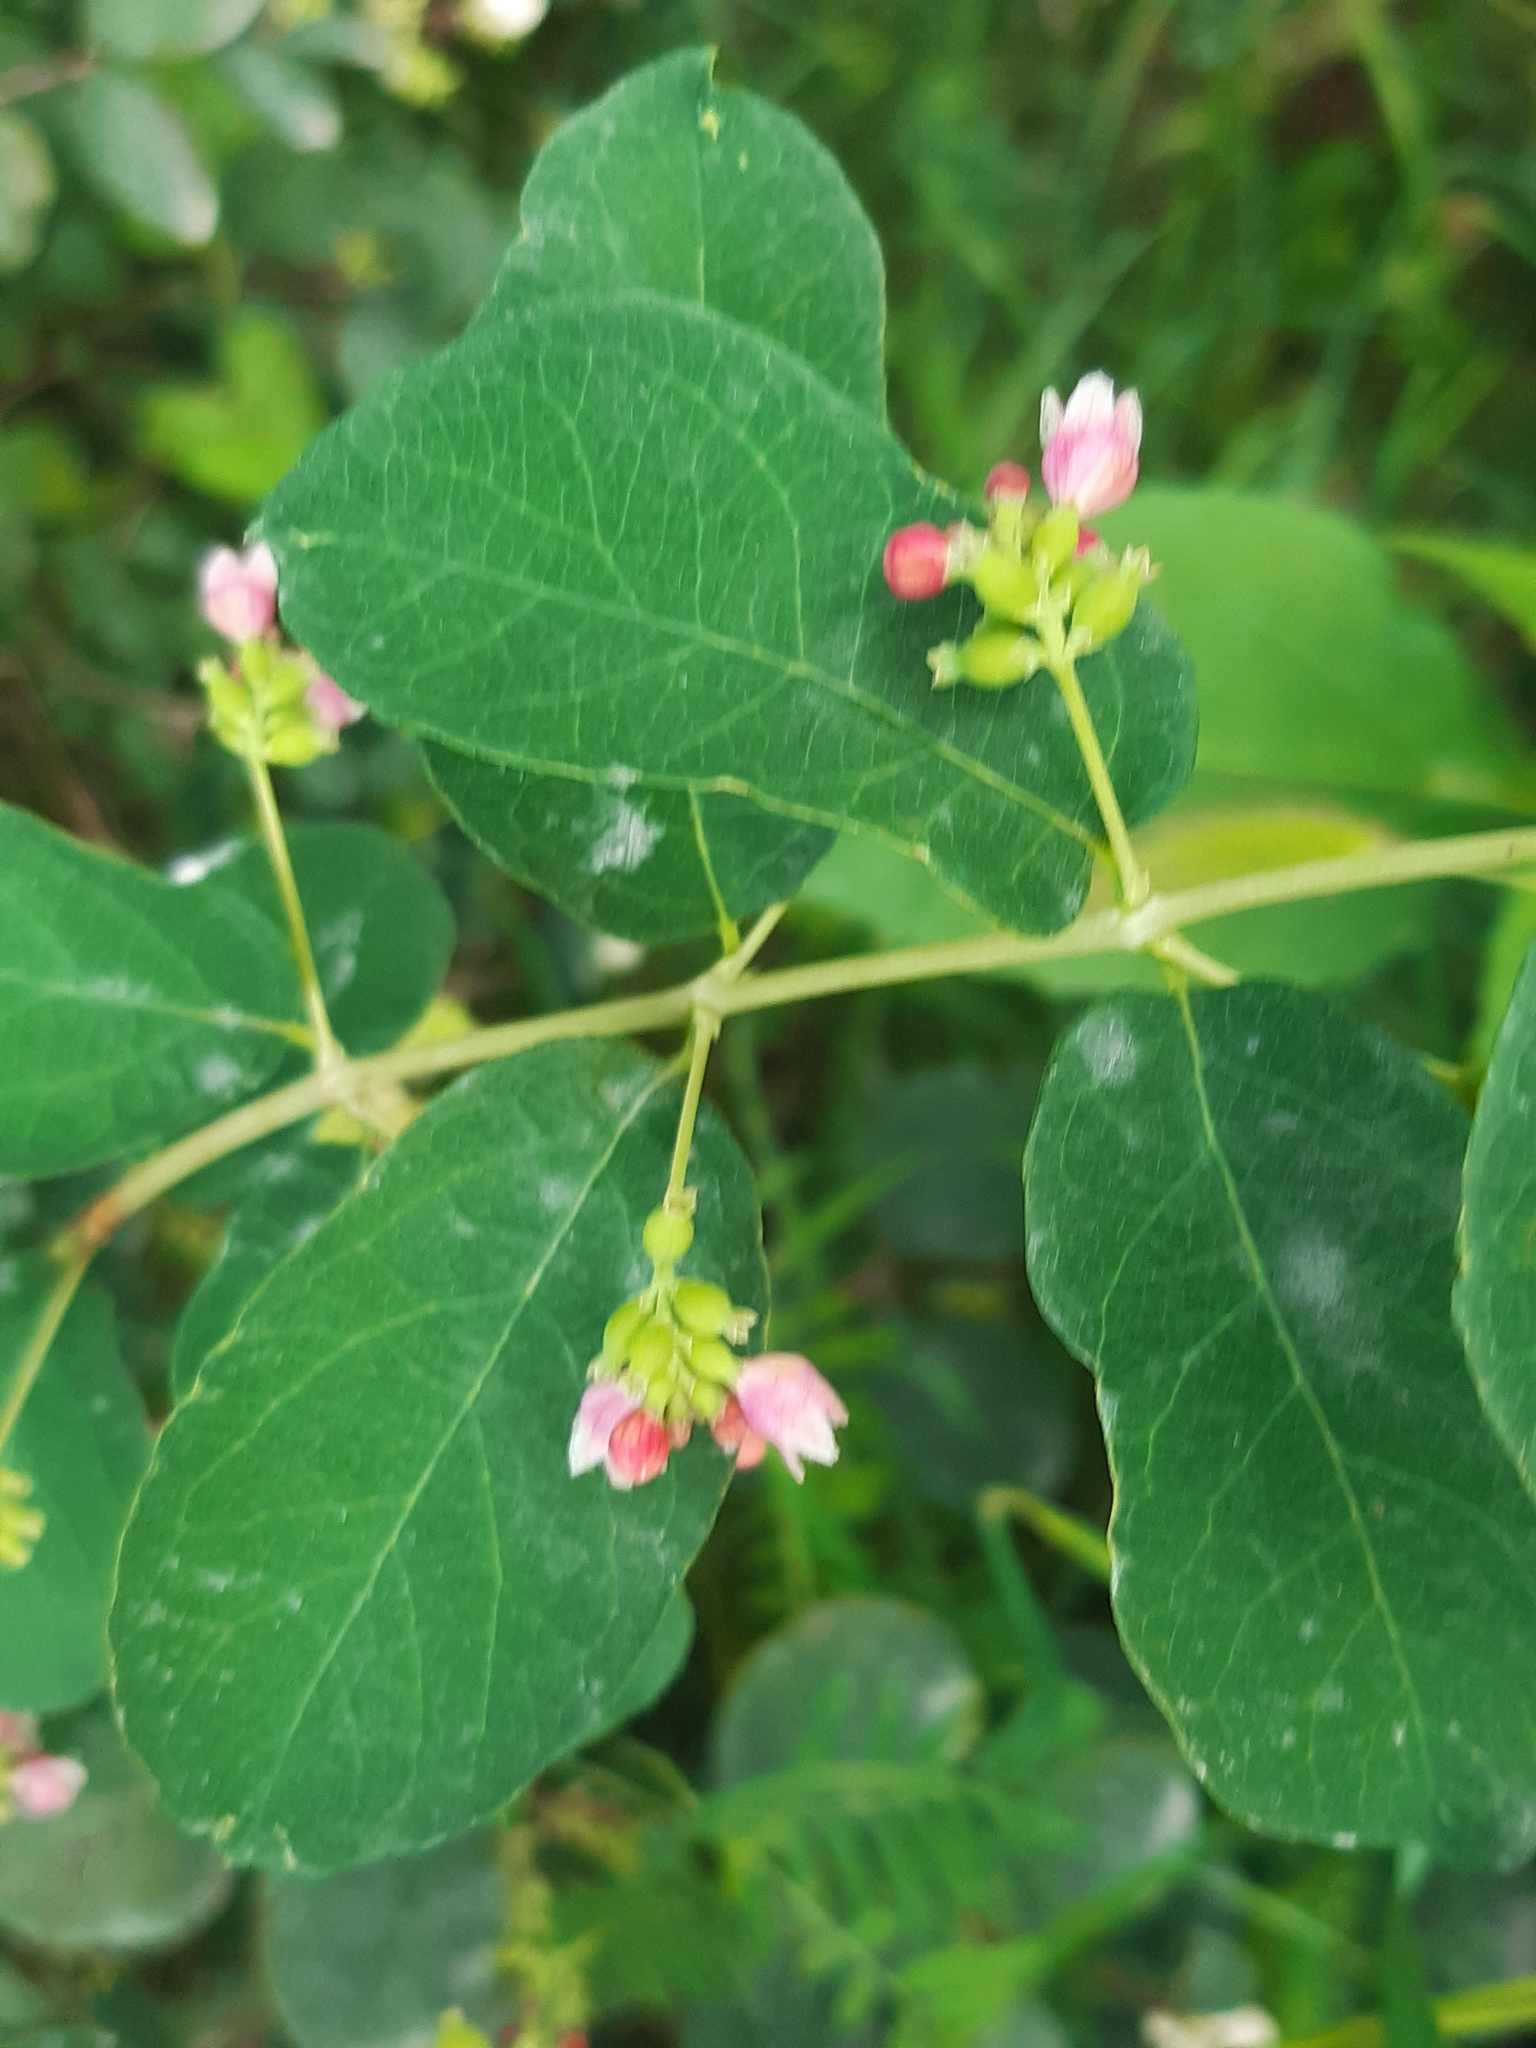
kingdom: Plantae
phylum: Tracheophyta
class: Magnoliopsida
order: Dipsacales
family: Caprifoliaceae
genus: Symphoricarpos
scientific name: Symphoricarpos albus
